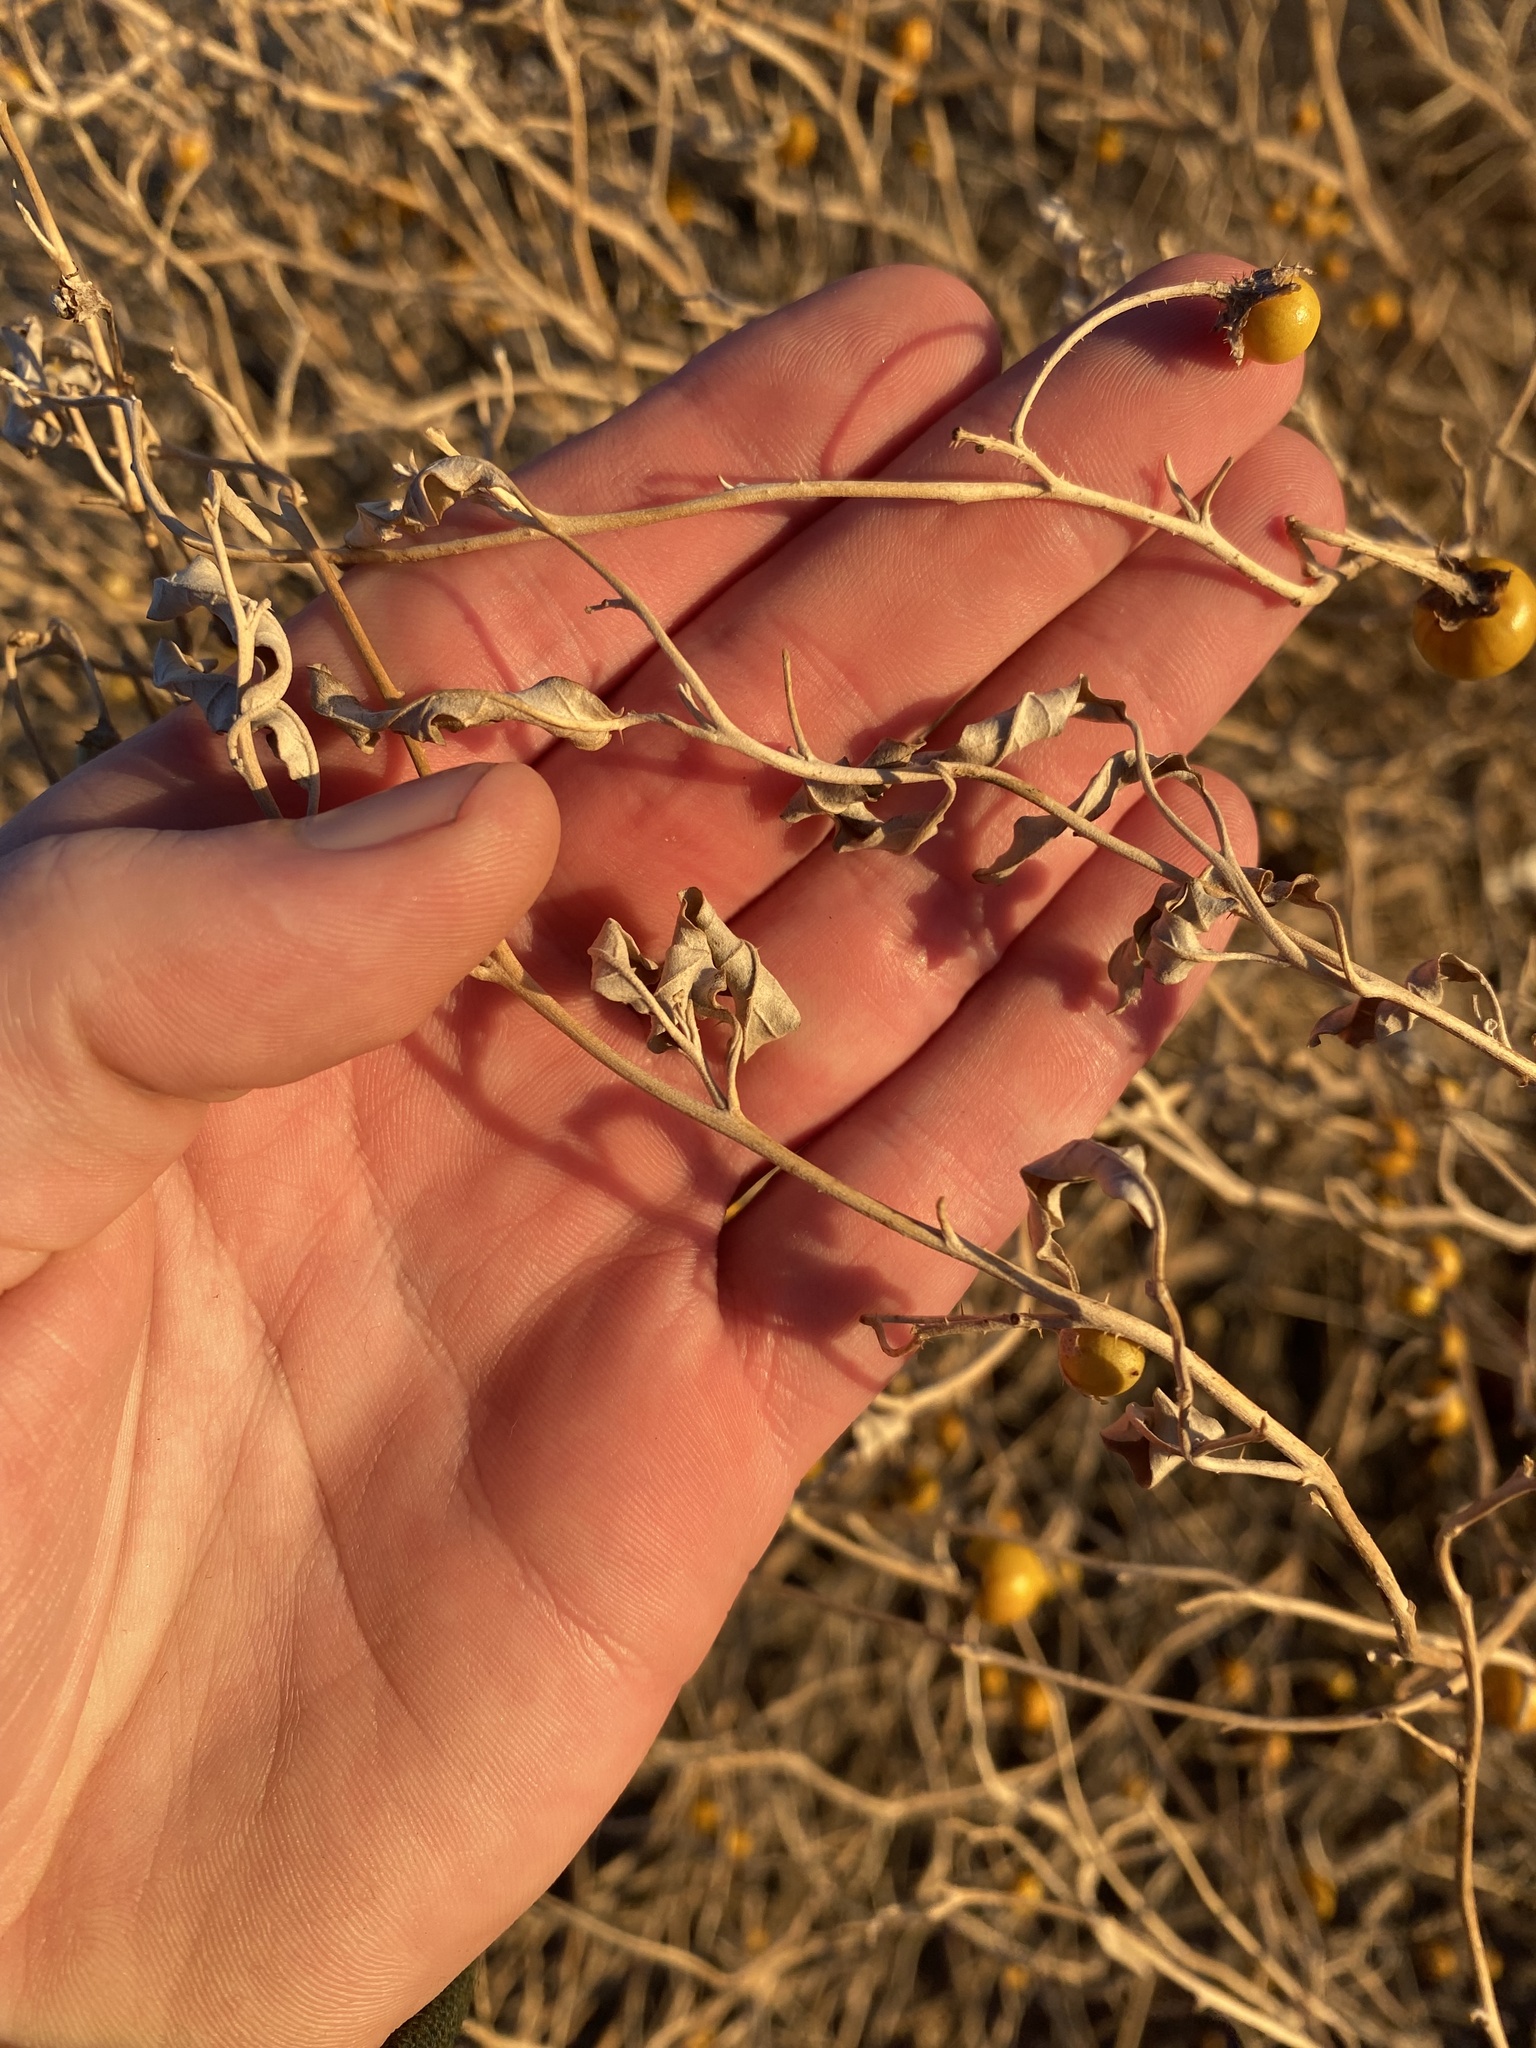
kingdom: Plantae
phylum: Tracheophyta
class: Magnoliopsida
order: Solanales
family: Solanaceae
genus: Solanum
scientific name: Solanum elaeagnifolium
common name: Silverleaf nightshade
